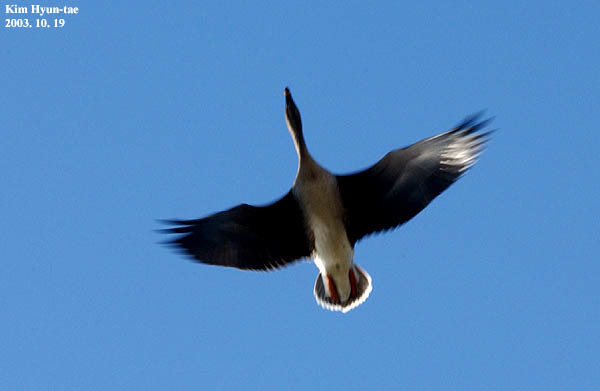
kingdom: Animalia
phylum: Chordata
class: Aves
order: Anseriformes
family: Anatidae
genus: Anser
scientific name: Anser fabalis
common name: Bean goose
